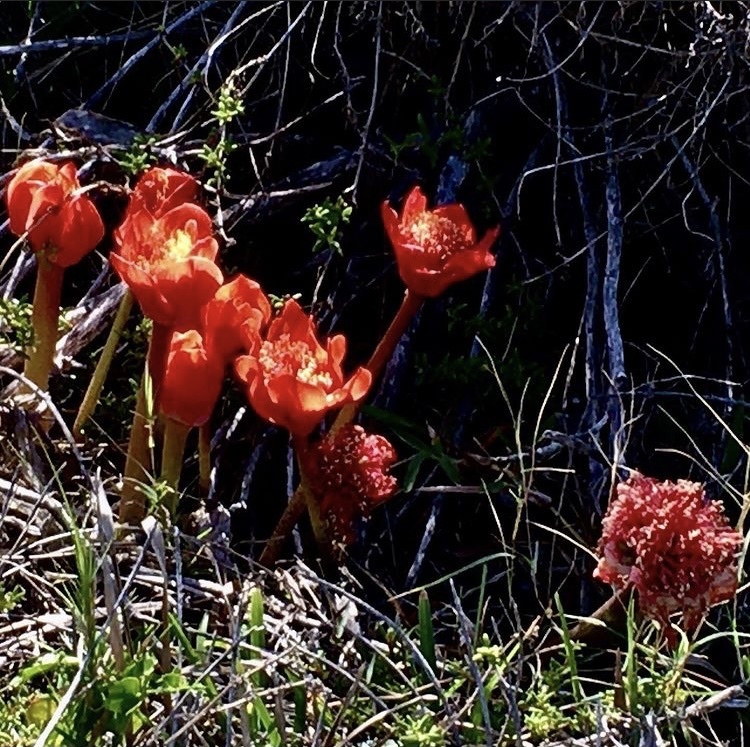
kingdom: Plantae
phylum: Tracheophyta
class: Liliopsida
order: Asparagales
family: Amaryllidaceae
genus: Haemanthus
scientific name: Haemanthus coccineus
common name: Cape-tulip
